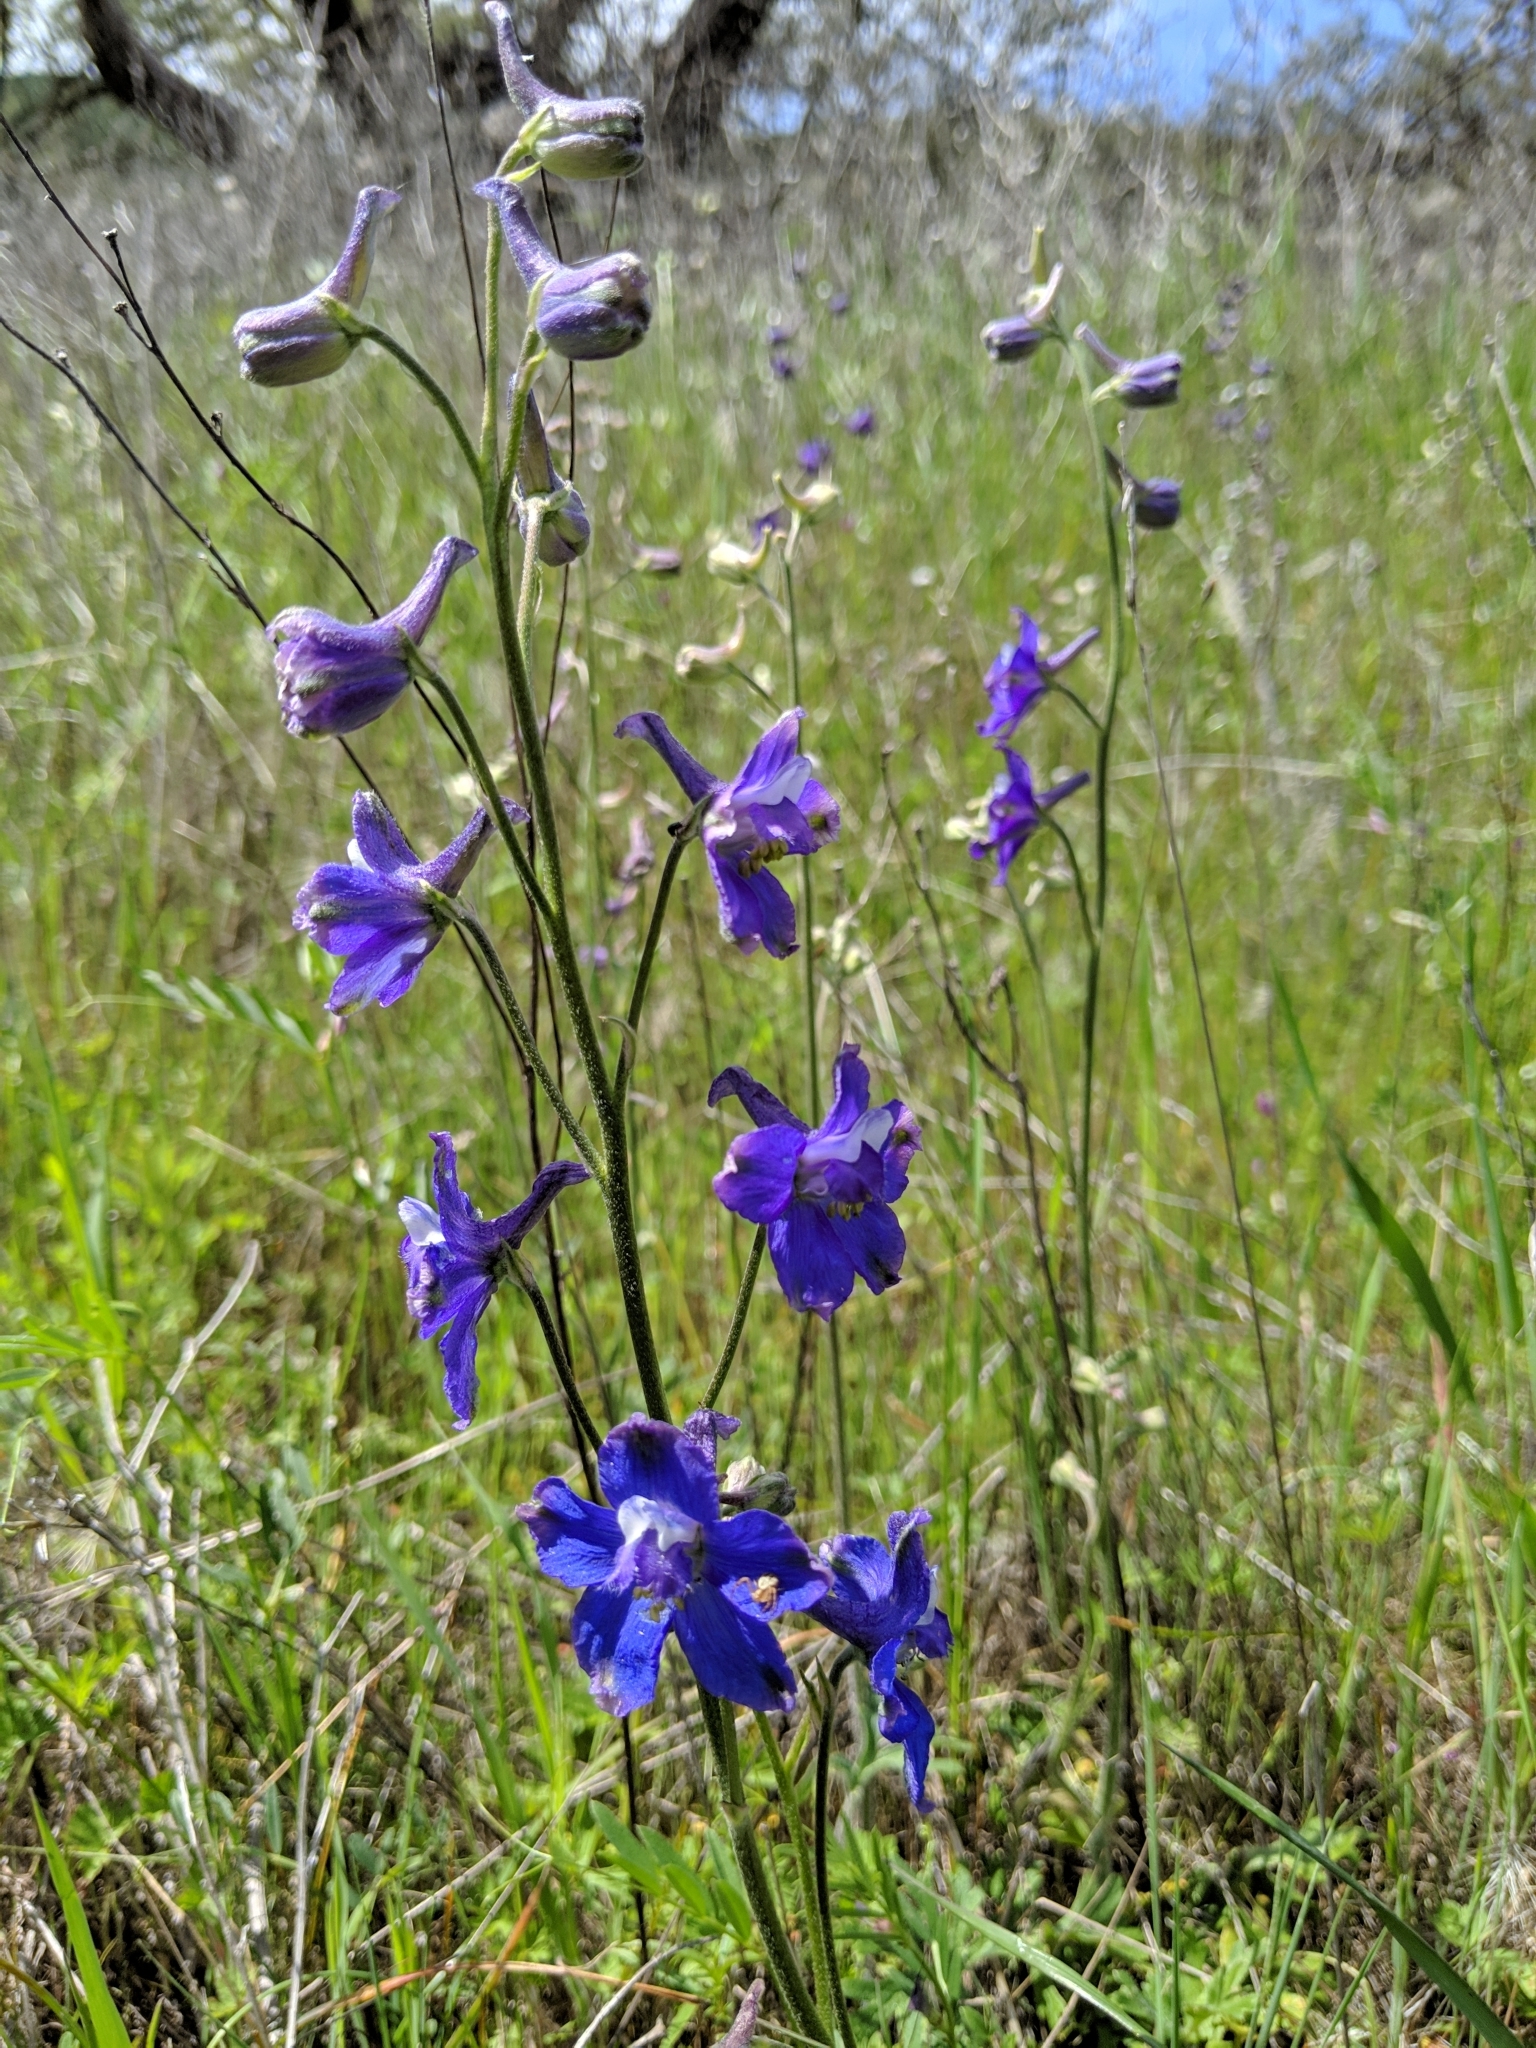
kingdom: Plantae
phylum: Tracheophyta
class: Magnoliopsida
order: Ranunculales
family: Ranunculaceae
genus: Delphinium
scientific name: Delphinium variegatum
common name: Royal larkspur
